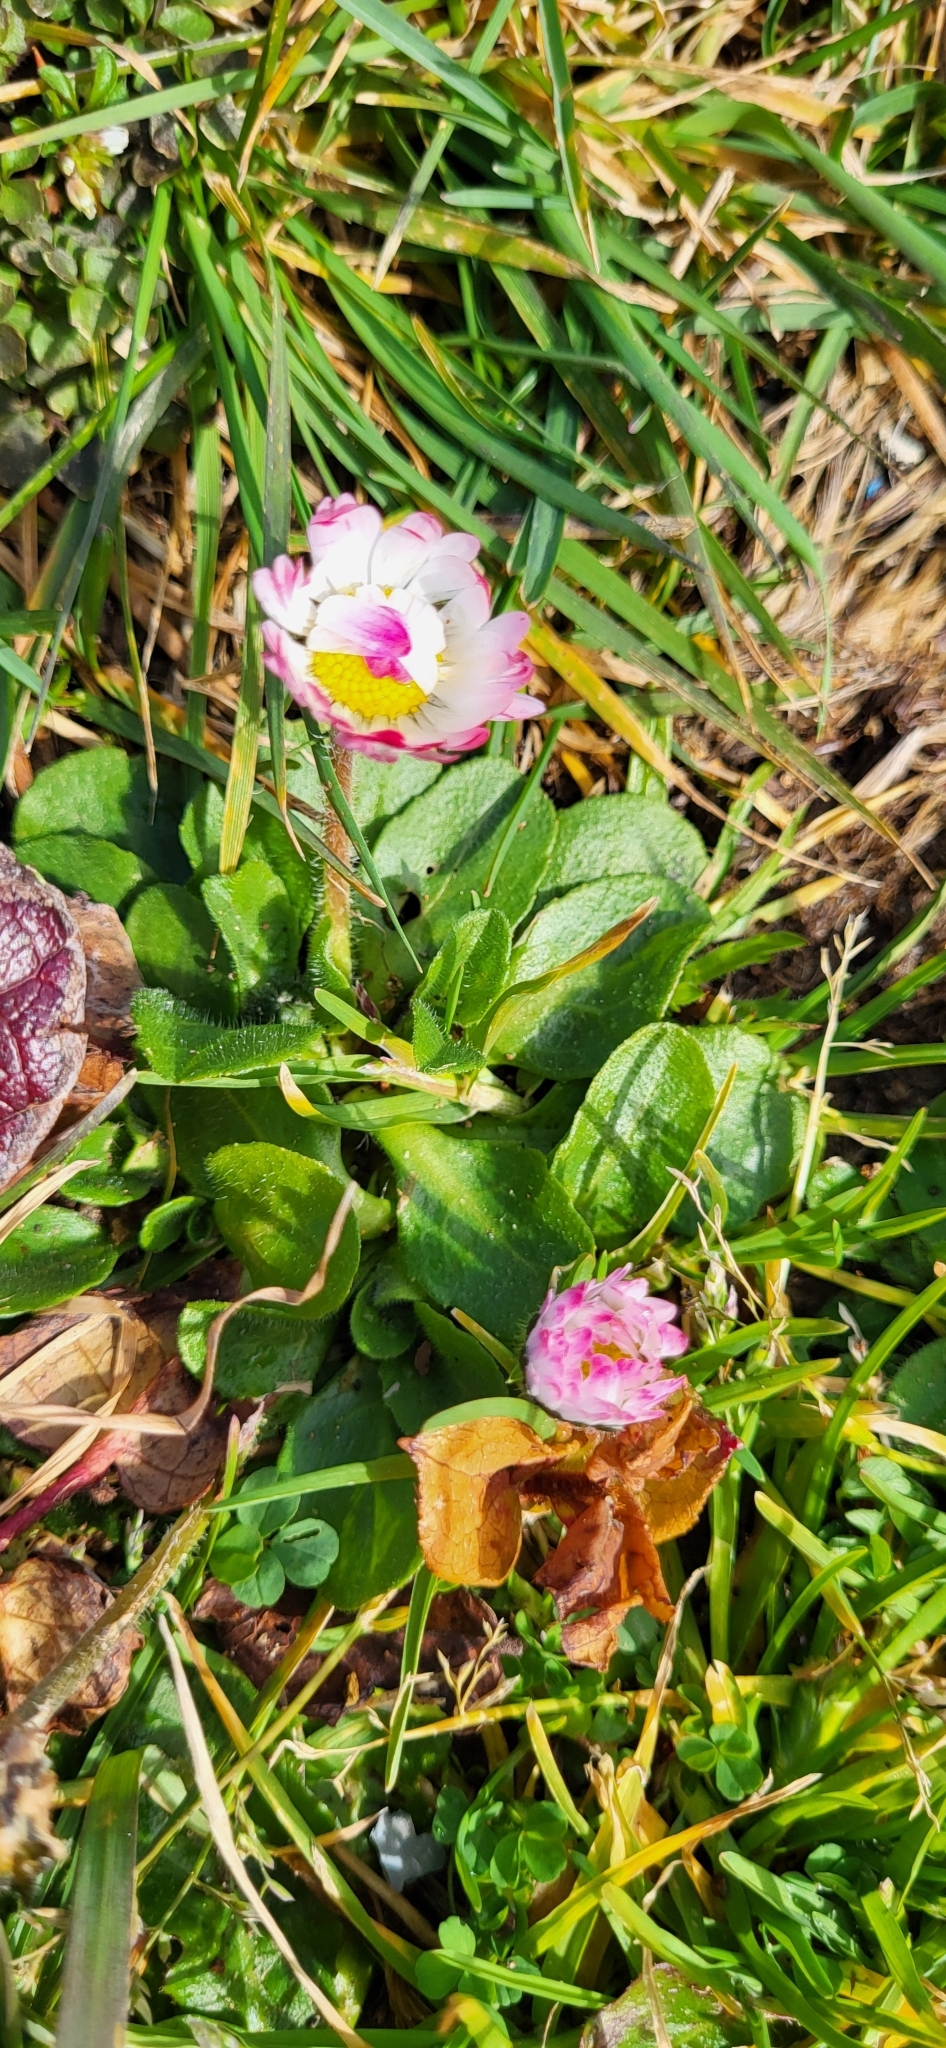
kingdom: Plantae
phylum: Tracheophyta
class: Magnoliopsida
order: Asterales
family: Asteraceae
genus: Bellis
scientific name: Bellis perennis
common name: Lawndaisy
